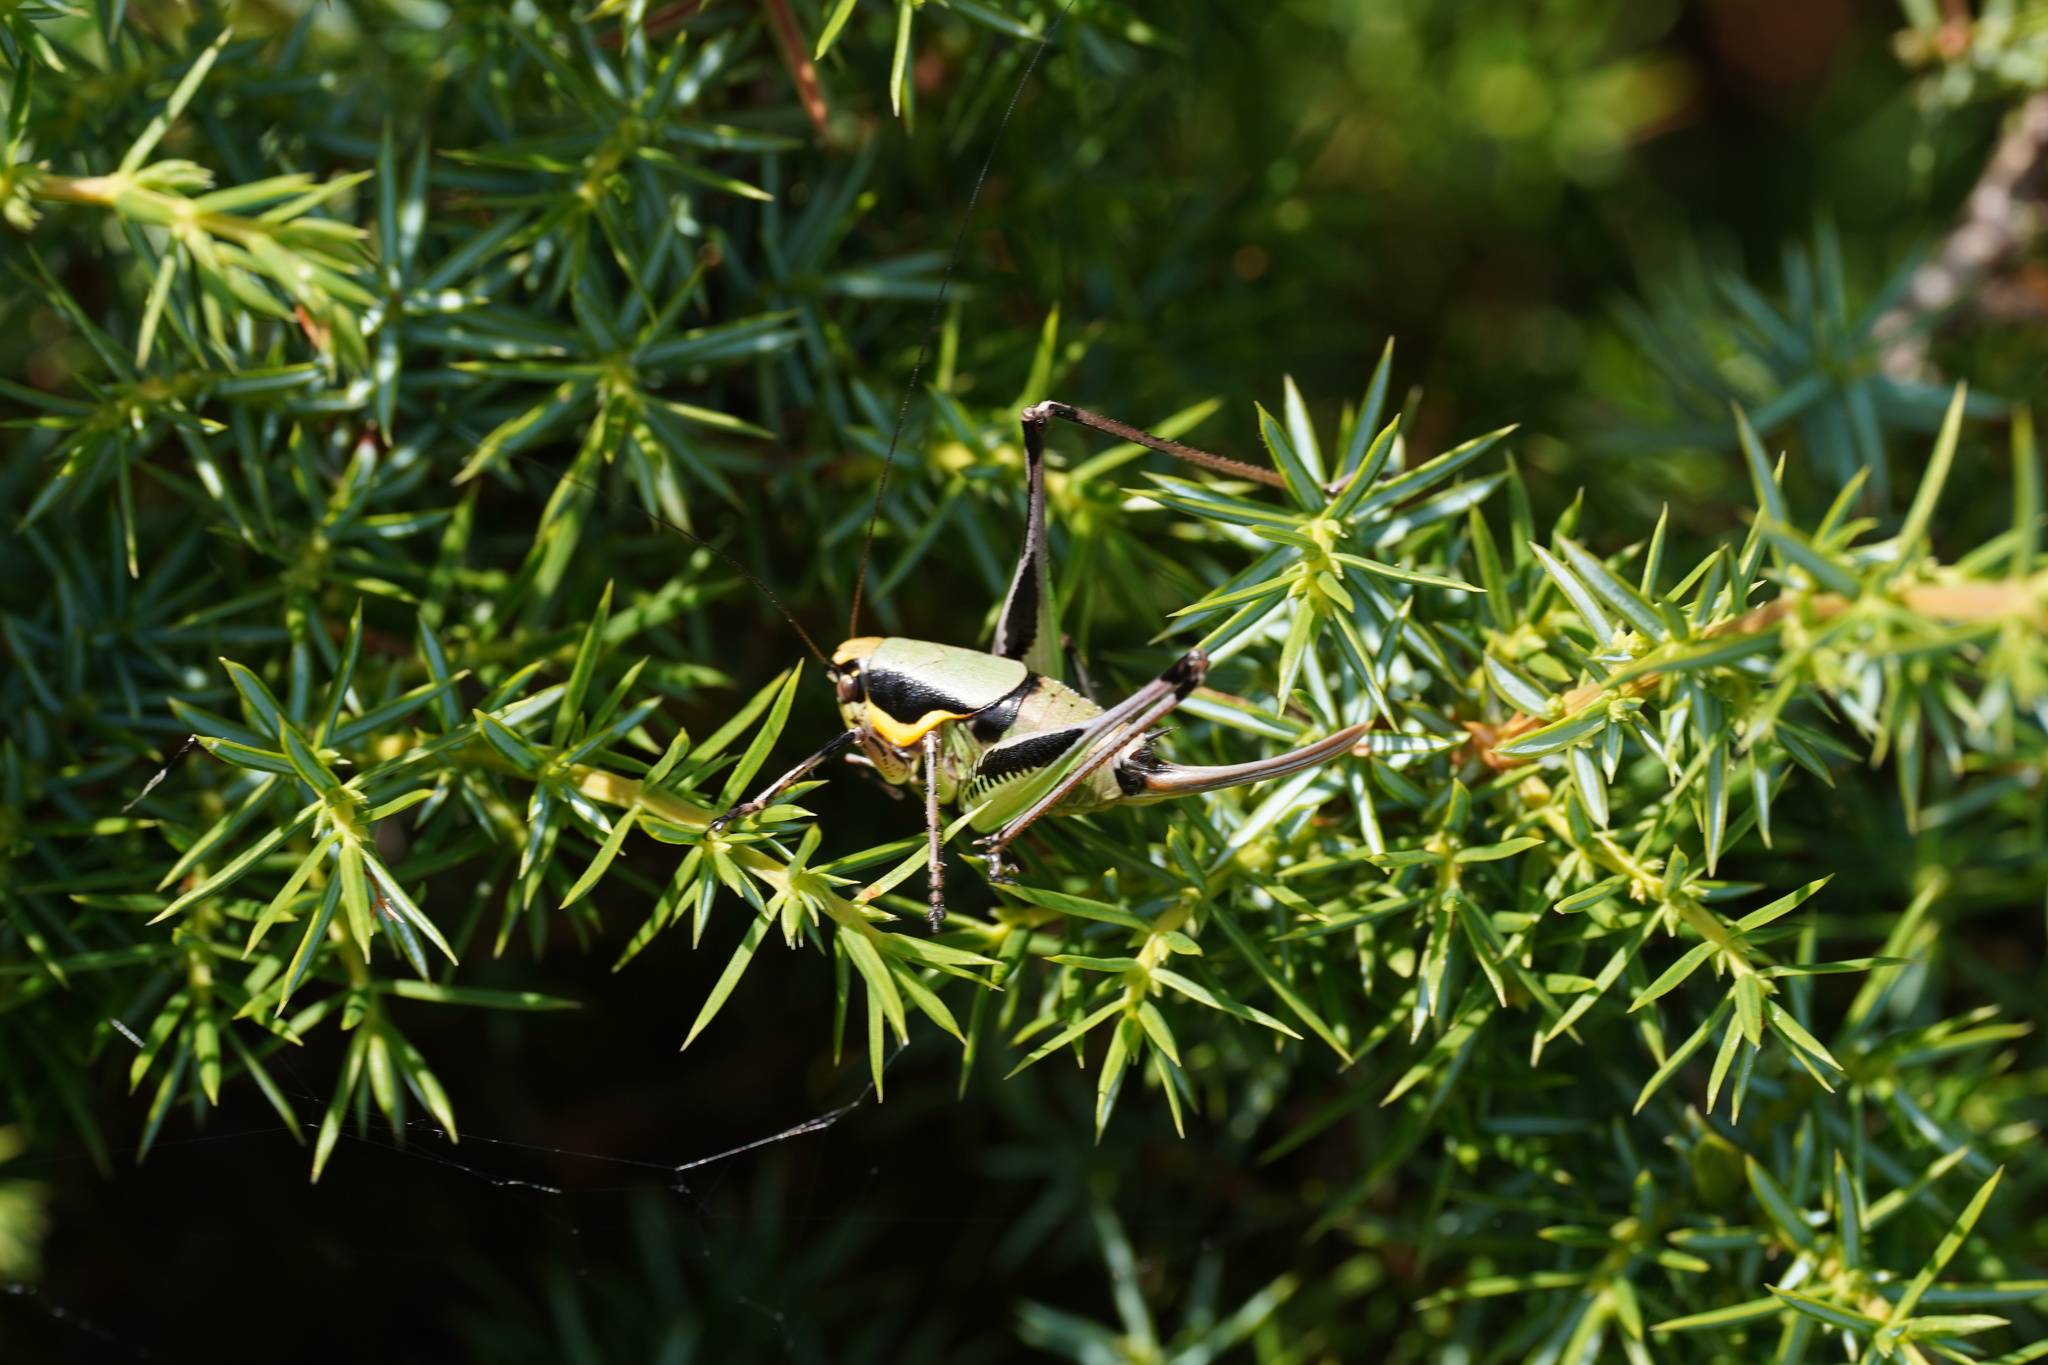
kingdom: Animalia
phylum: Arthropoda
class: Insecta
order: Orthoptera
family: Tettigoniidae
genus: Eupholidoptera
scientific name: Eupholidoptera chabrieri
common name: Chabrier's marbled bush-cricket
